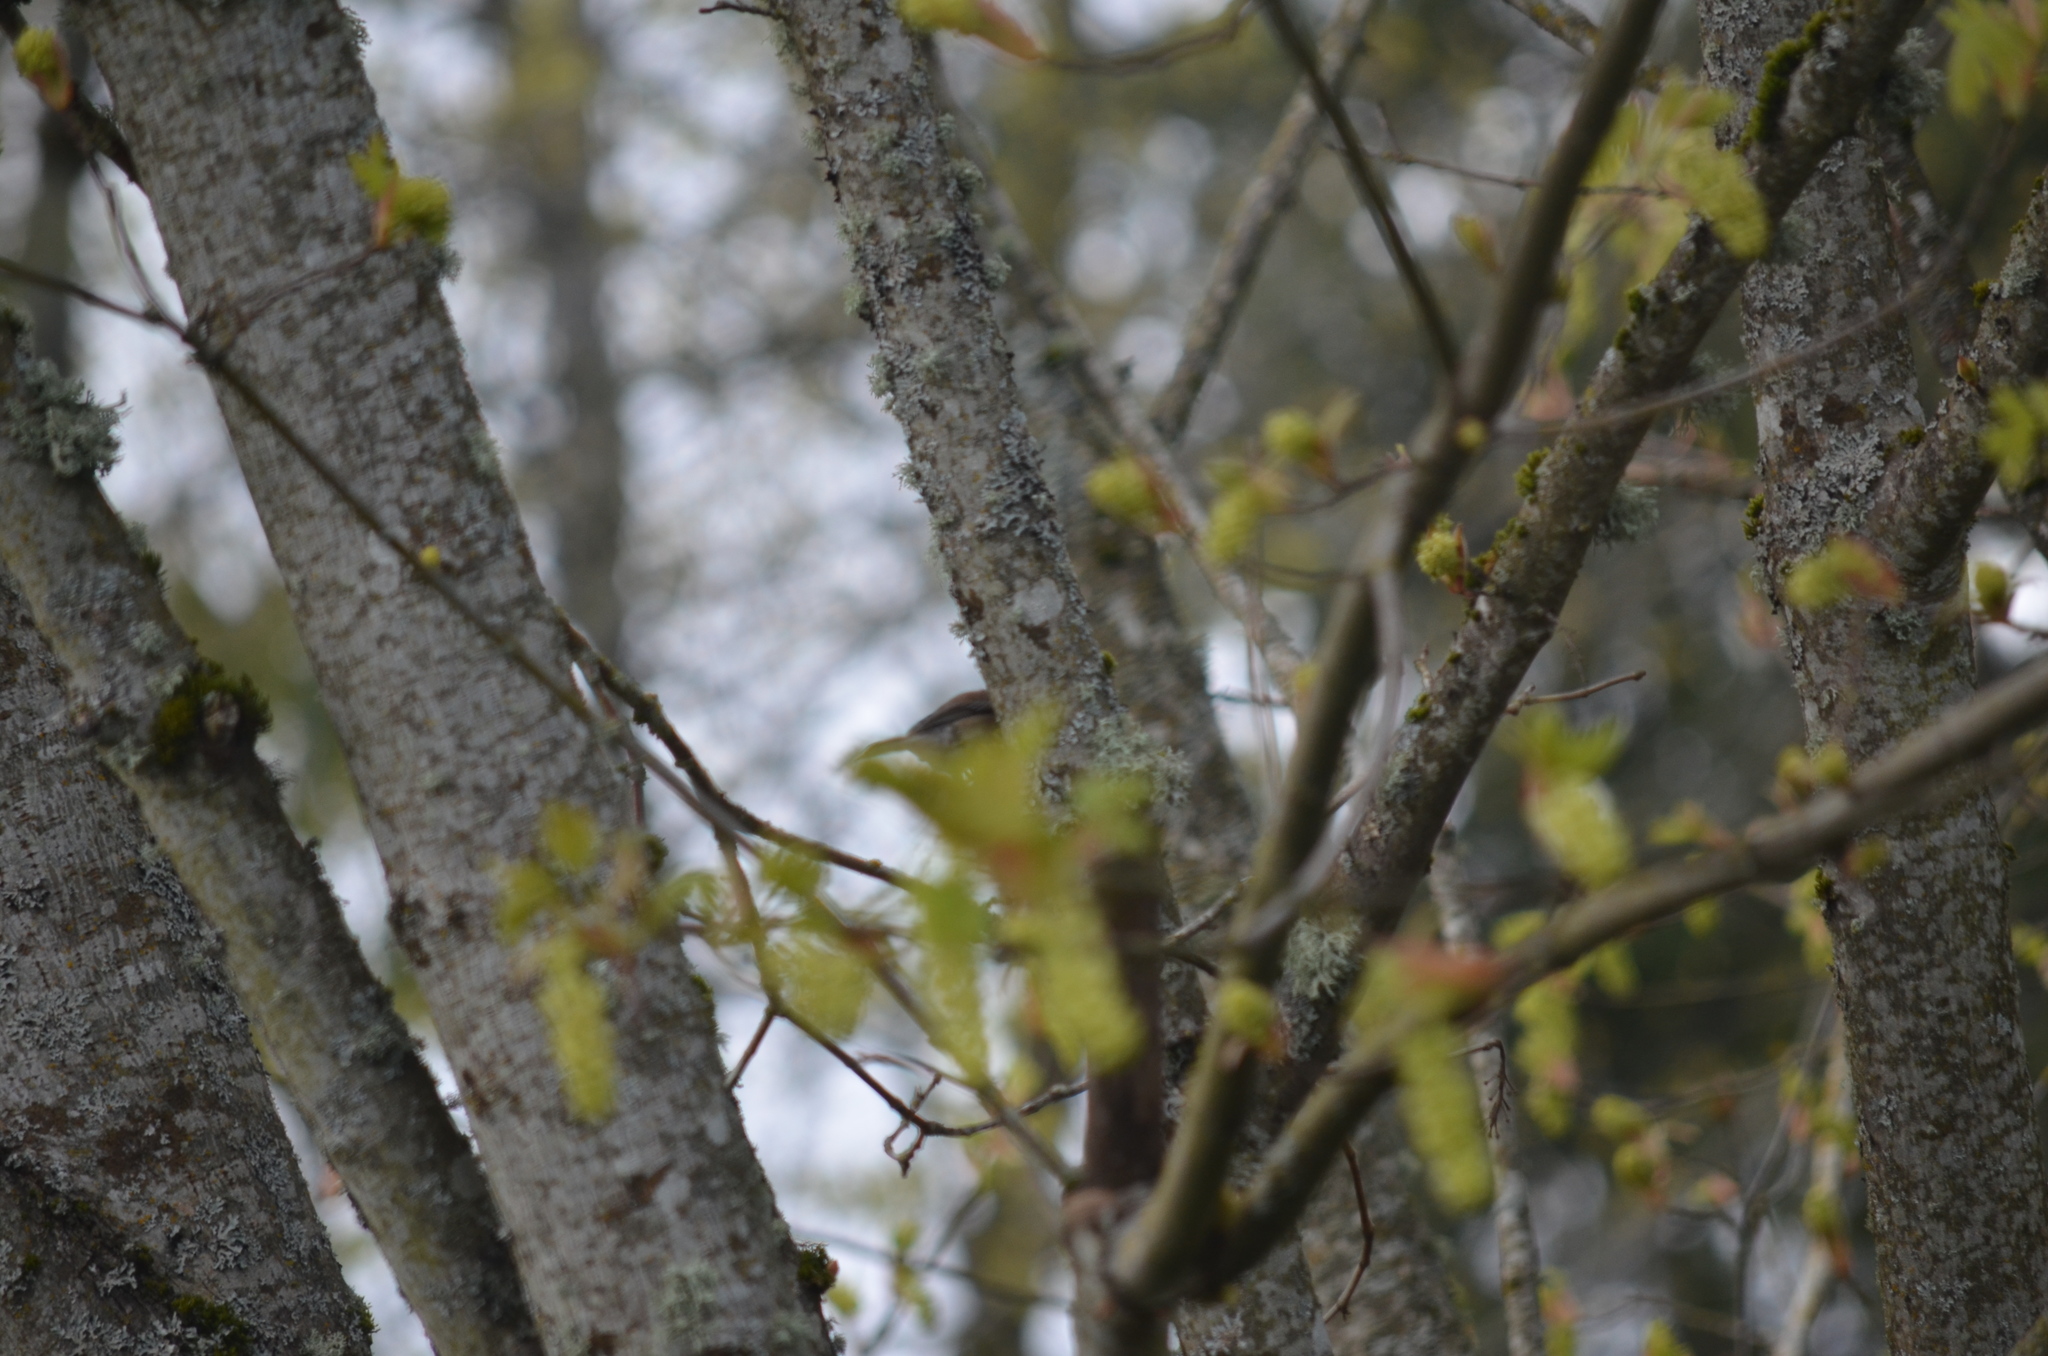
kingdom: Animalia
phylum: Chordata
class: Aves
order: Passeriformes
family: Passerellidae
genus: Junco
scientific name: Junco hyemalis
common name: Dark-eyed junco
